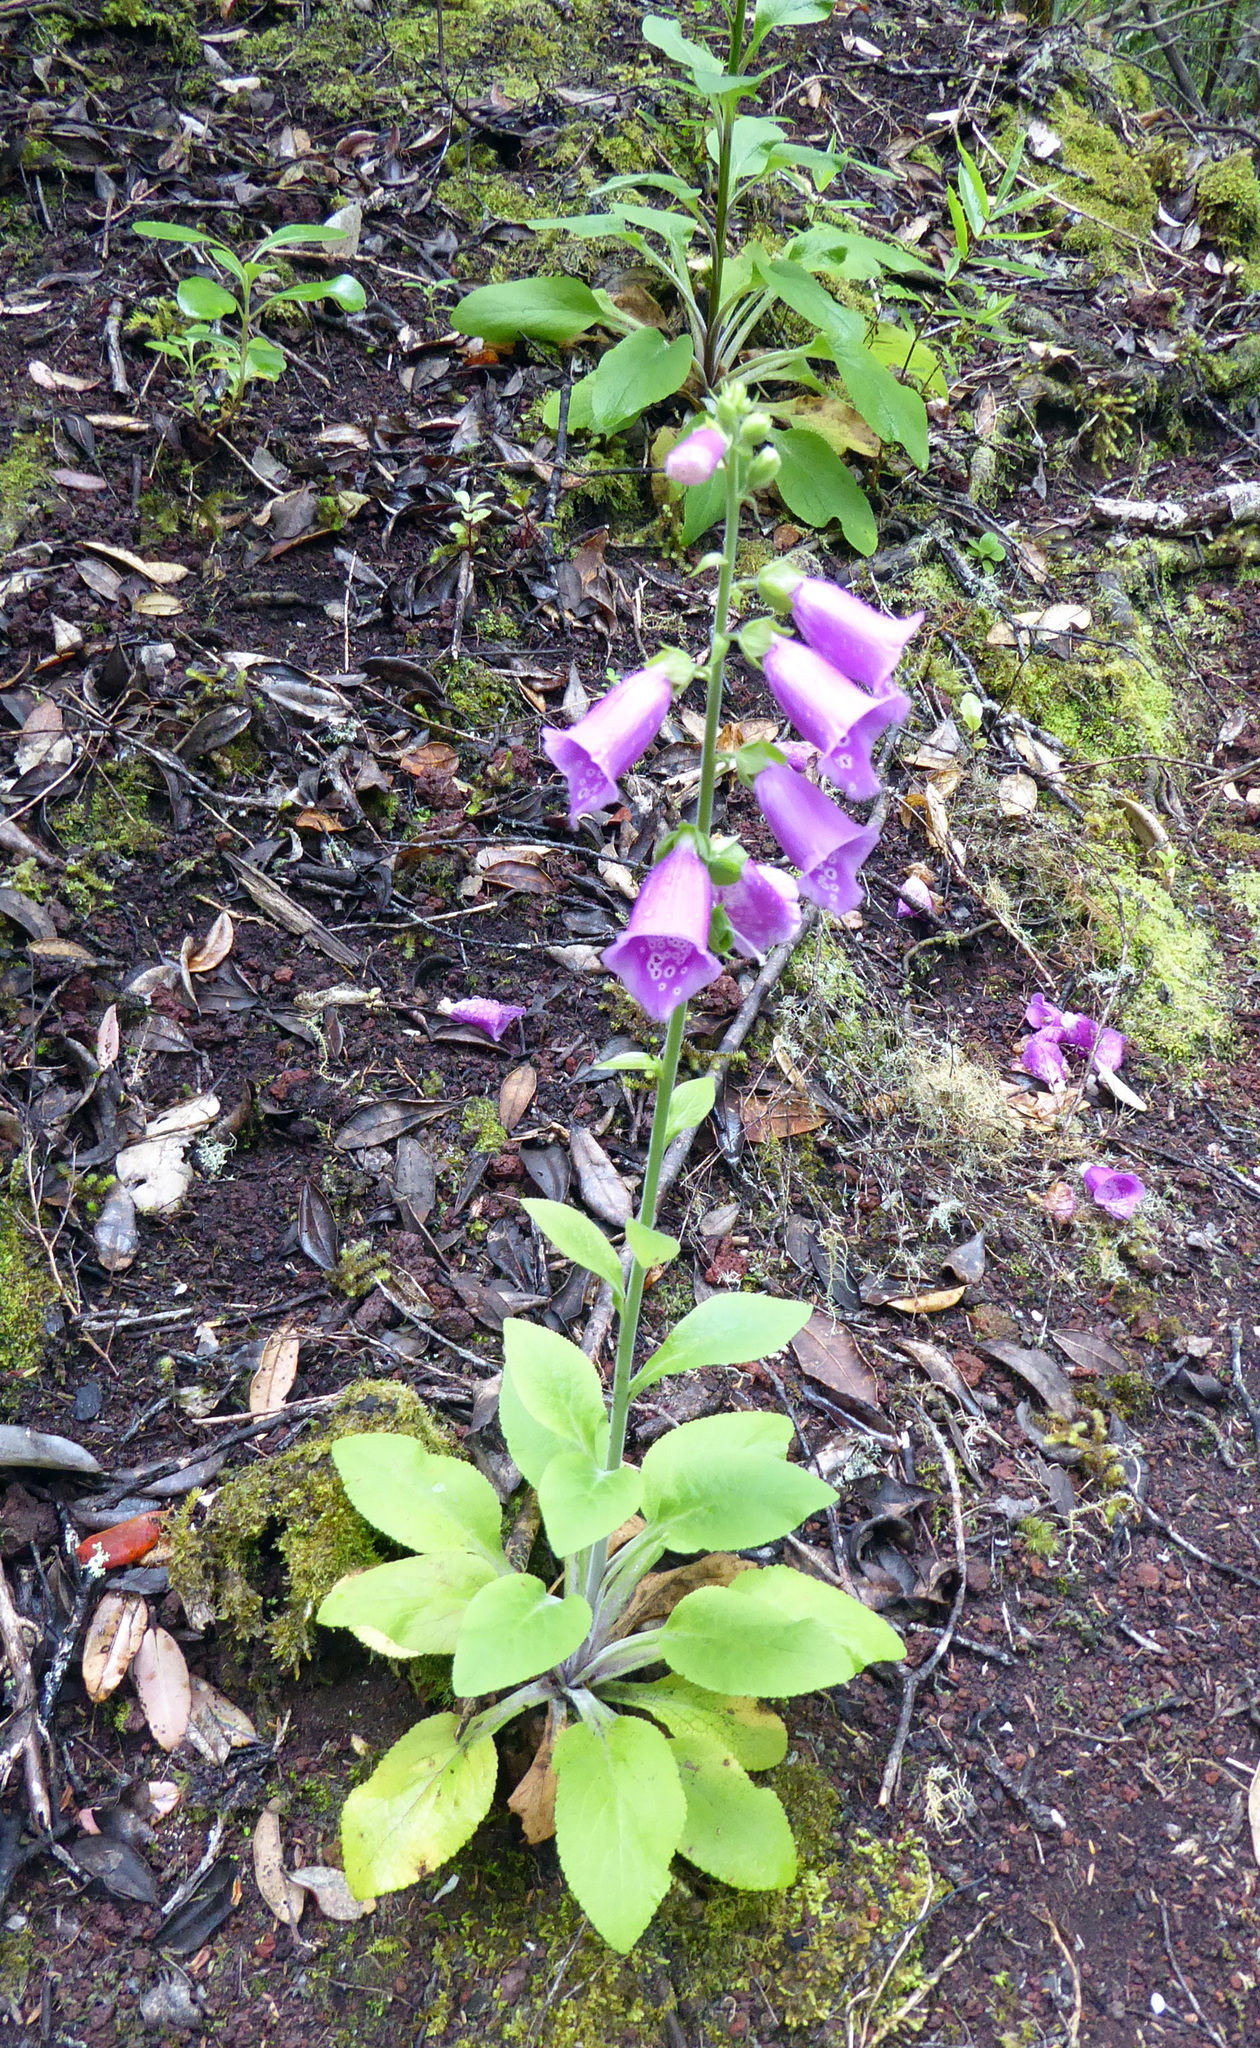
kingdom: Plantae
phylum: Tracheophyta
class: Magnoliopsida
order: Lamiales
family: Plantaginaceae
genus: Digitalis
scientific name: Digitalis purpurea
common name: Foxglove
